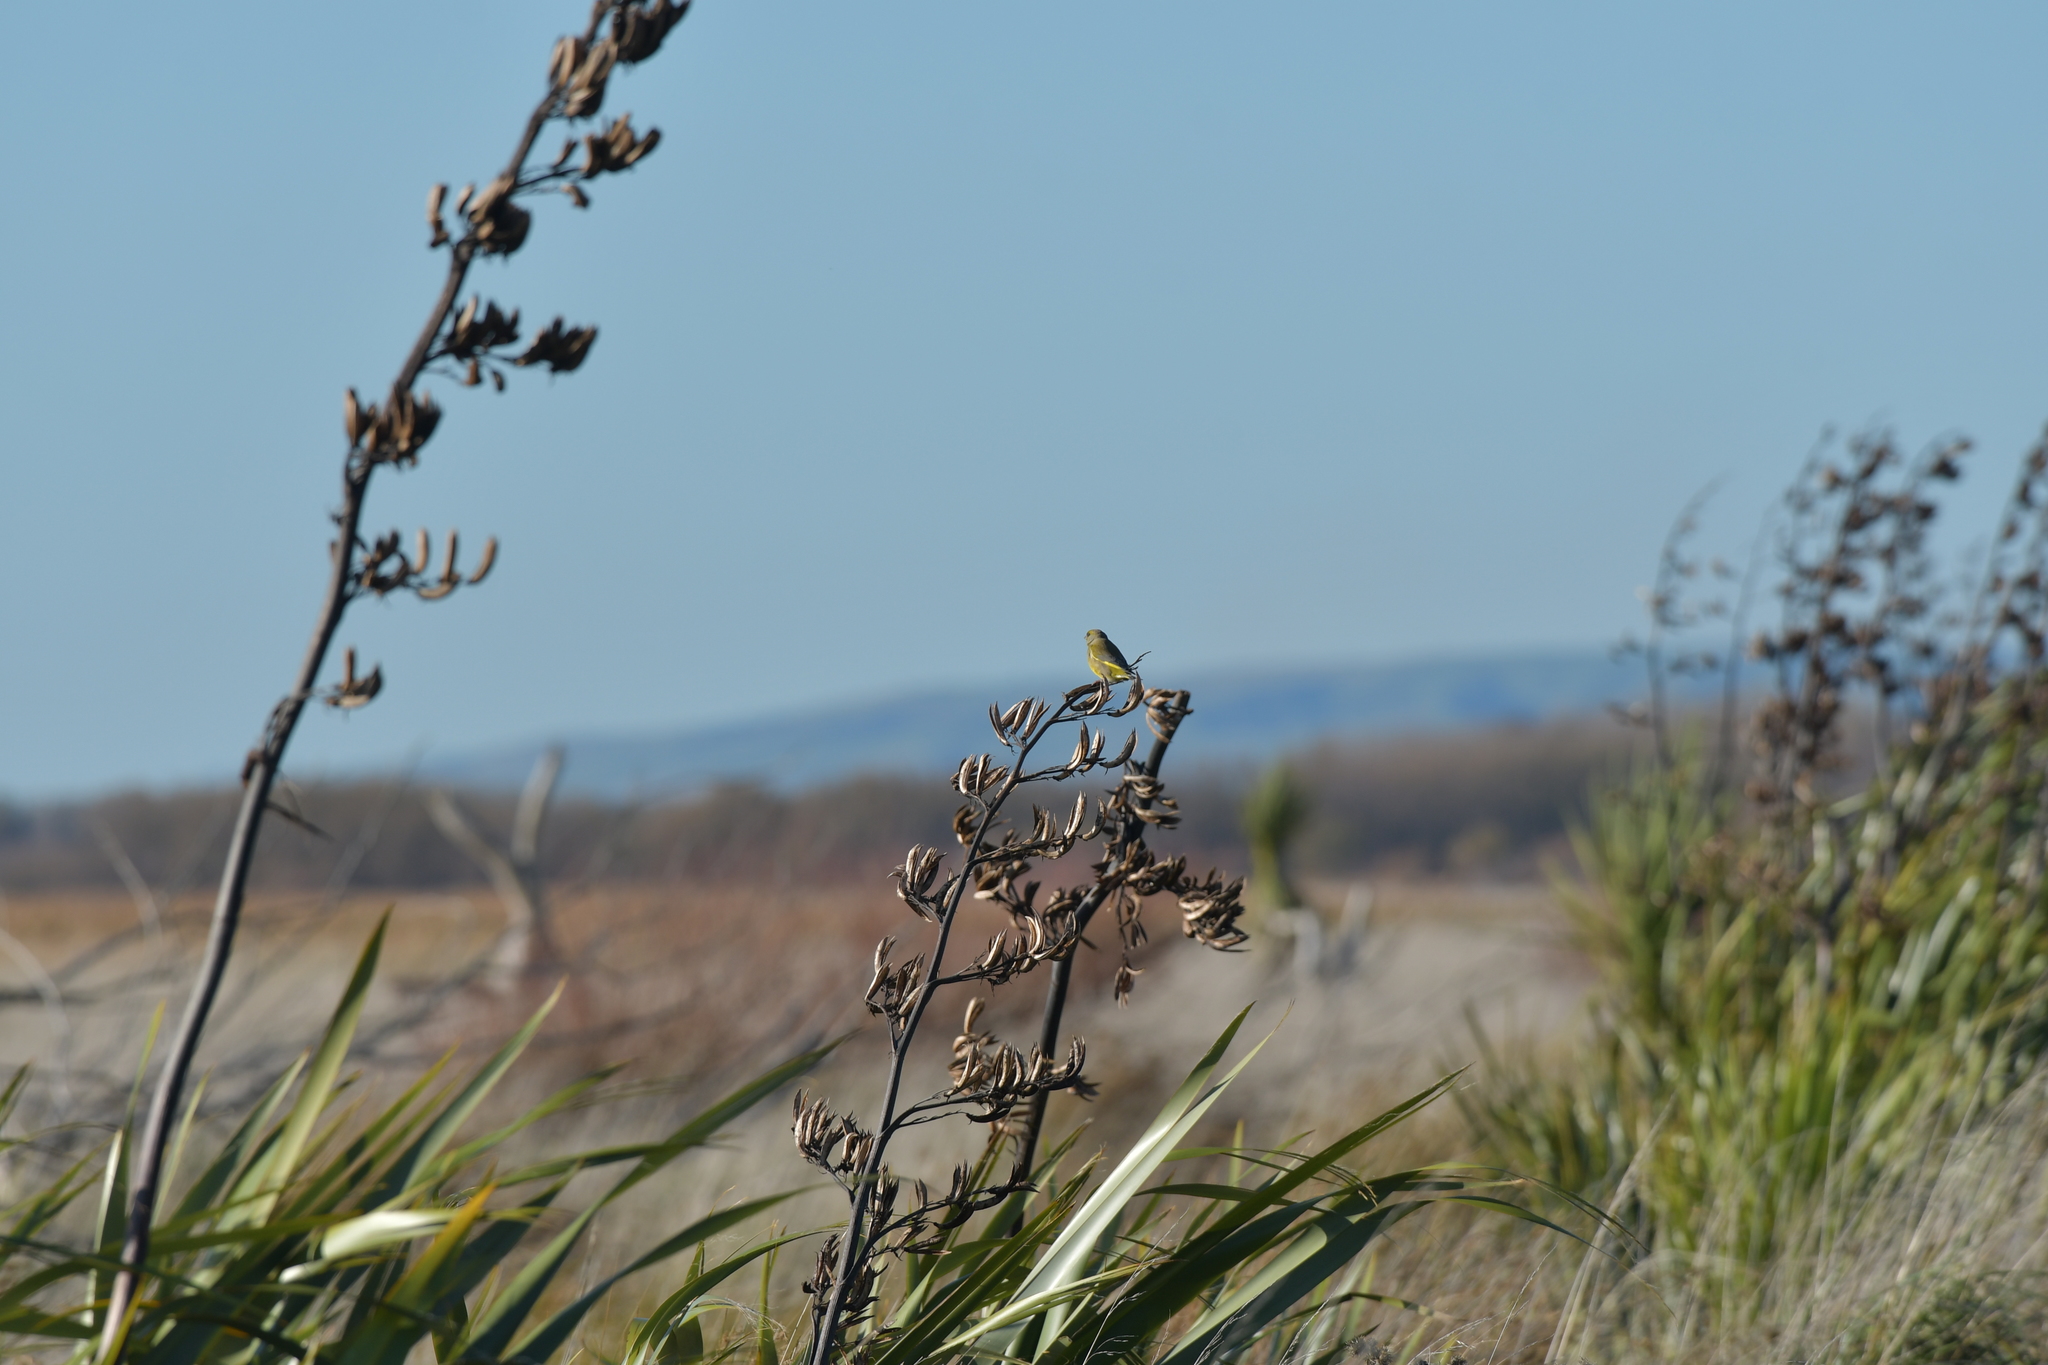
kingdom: Plantae
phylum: Tracheophyta
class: Liliopsida
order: Poales
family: Poaceae
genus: Chloris
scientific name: Chloris chloris
